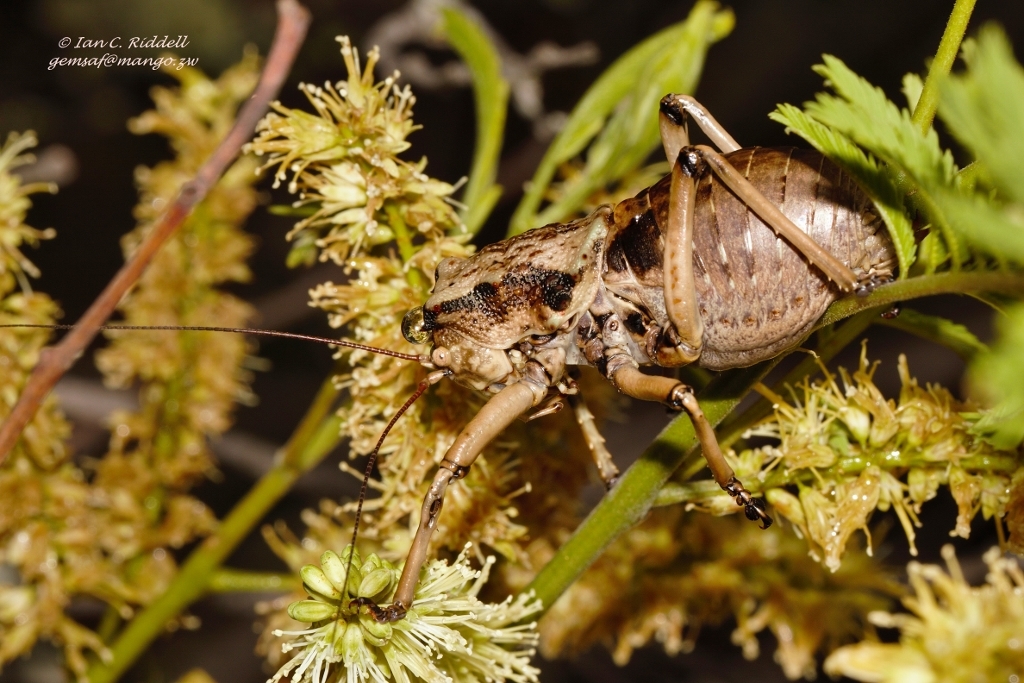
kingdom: Animalia
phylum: Arthropoda
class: Insecta
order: Orthoptera
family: Tettigoniidae
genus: Enyaliopsis
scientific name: Enyaliopsis matabelensis
